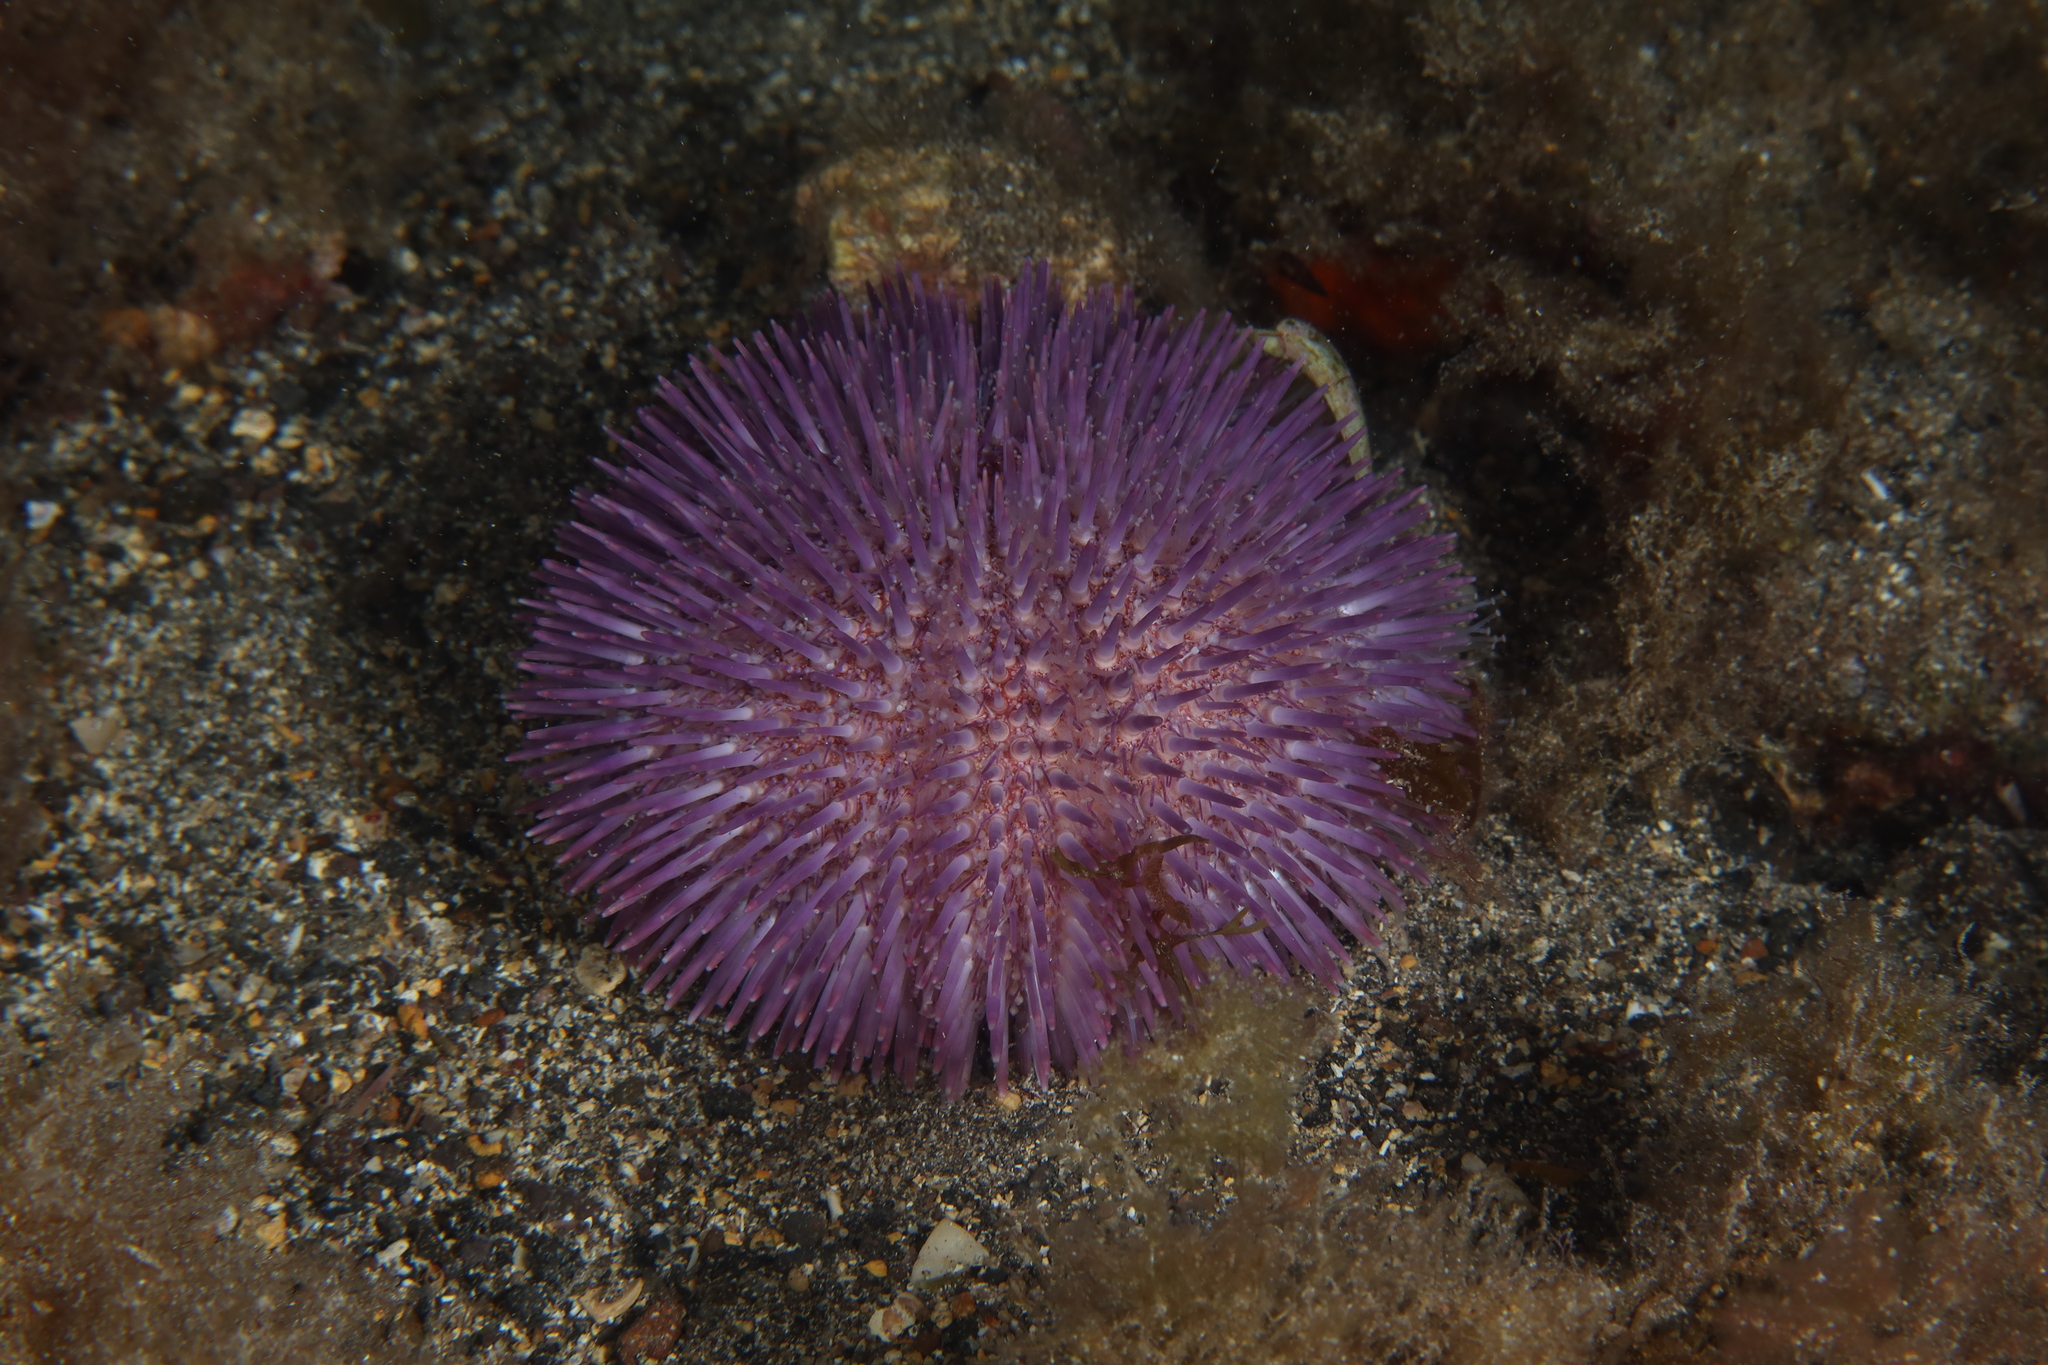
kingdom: Animalia
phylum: Echinodermata
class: Echinoidea
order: Camarodonta
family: Toxopneustidae
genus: Sphaerechinus
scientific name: Sphaerechinus granularis
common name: Violet sea urchin
